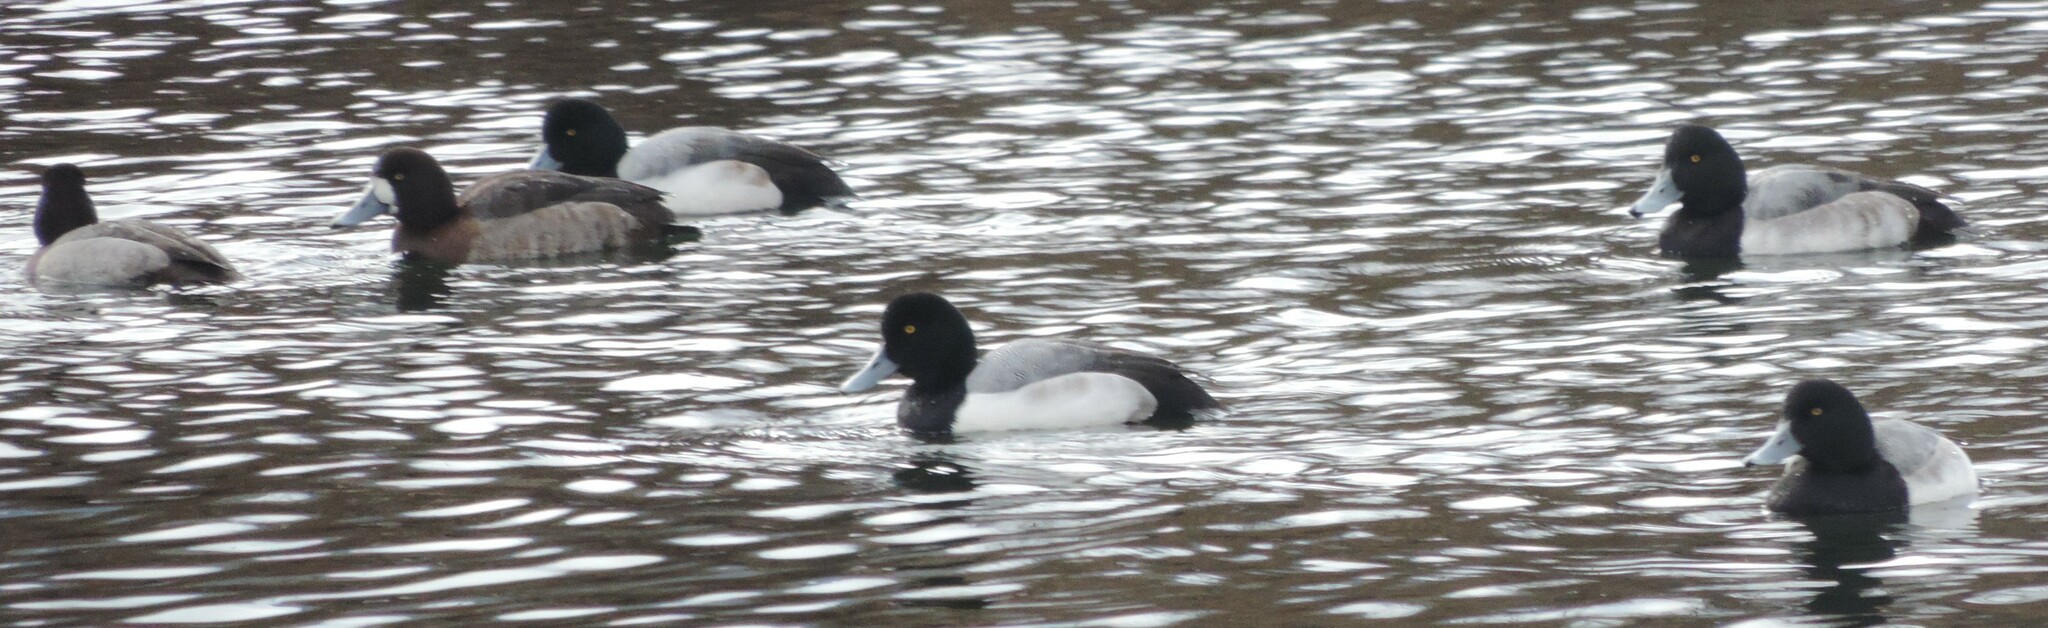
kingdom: Animalia
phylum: Chordata
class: Aves
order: Anseriformes
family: Anatidae
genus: Aythya
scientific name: Aythya marila
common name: Greater scaup
